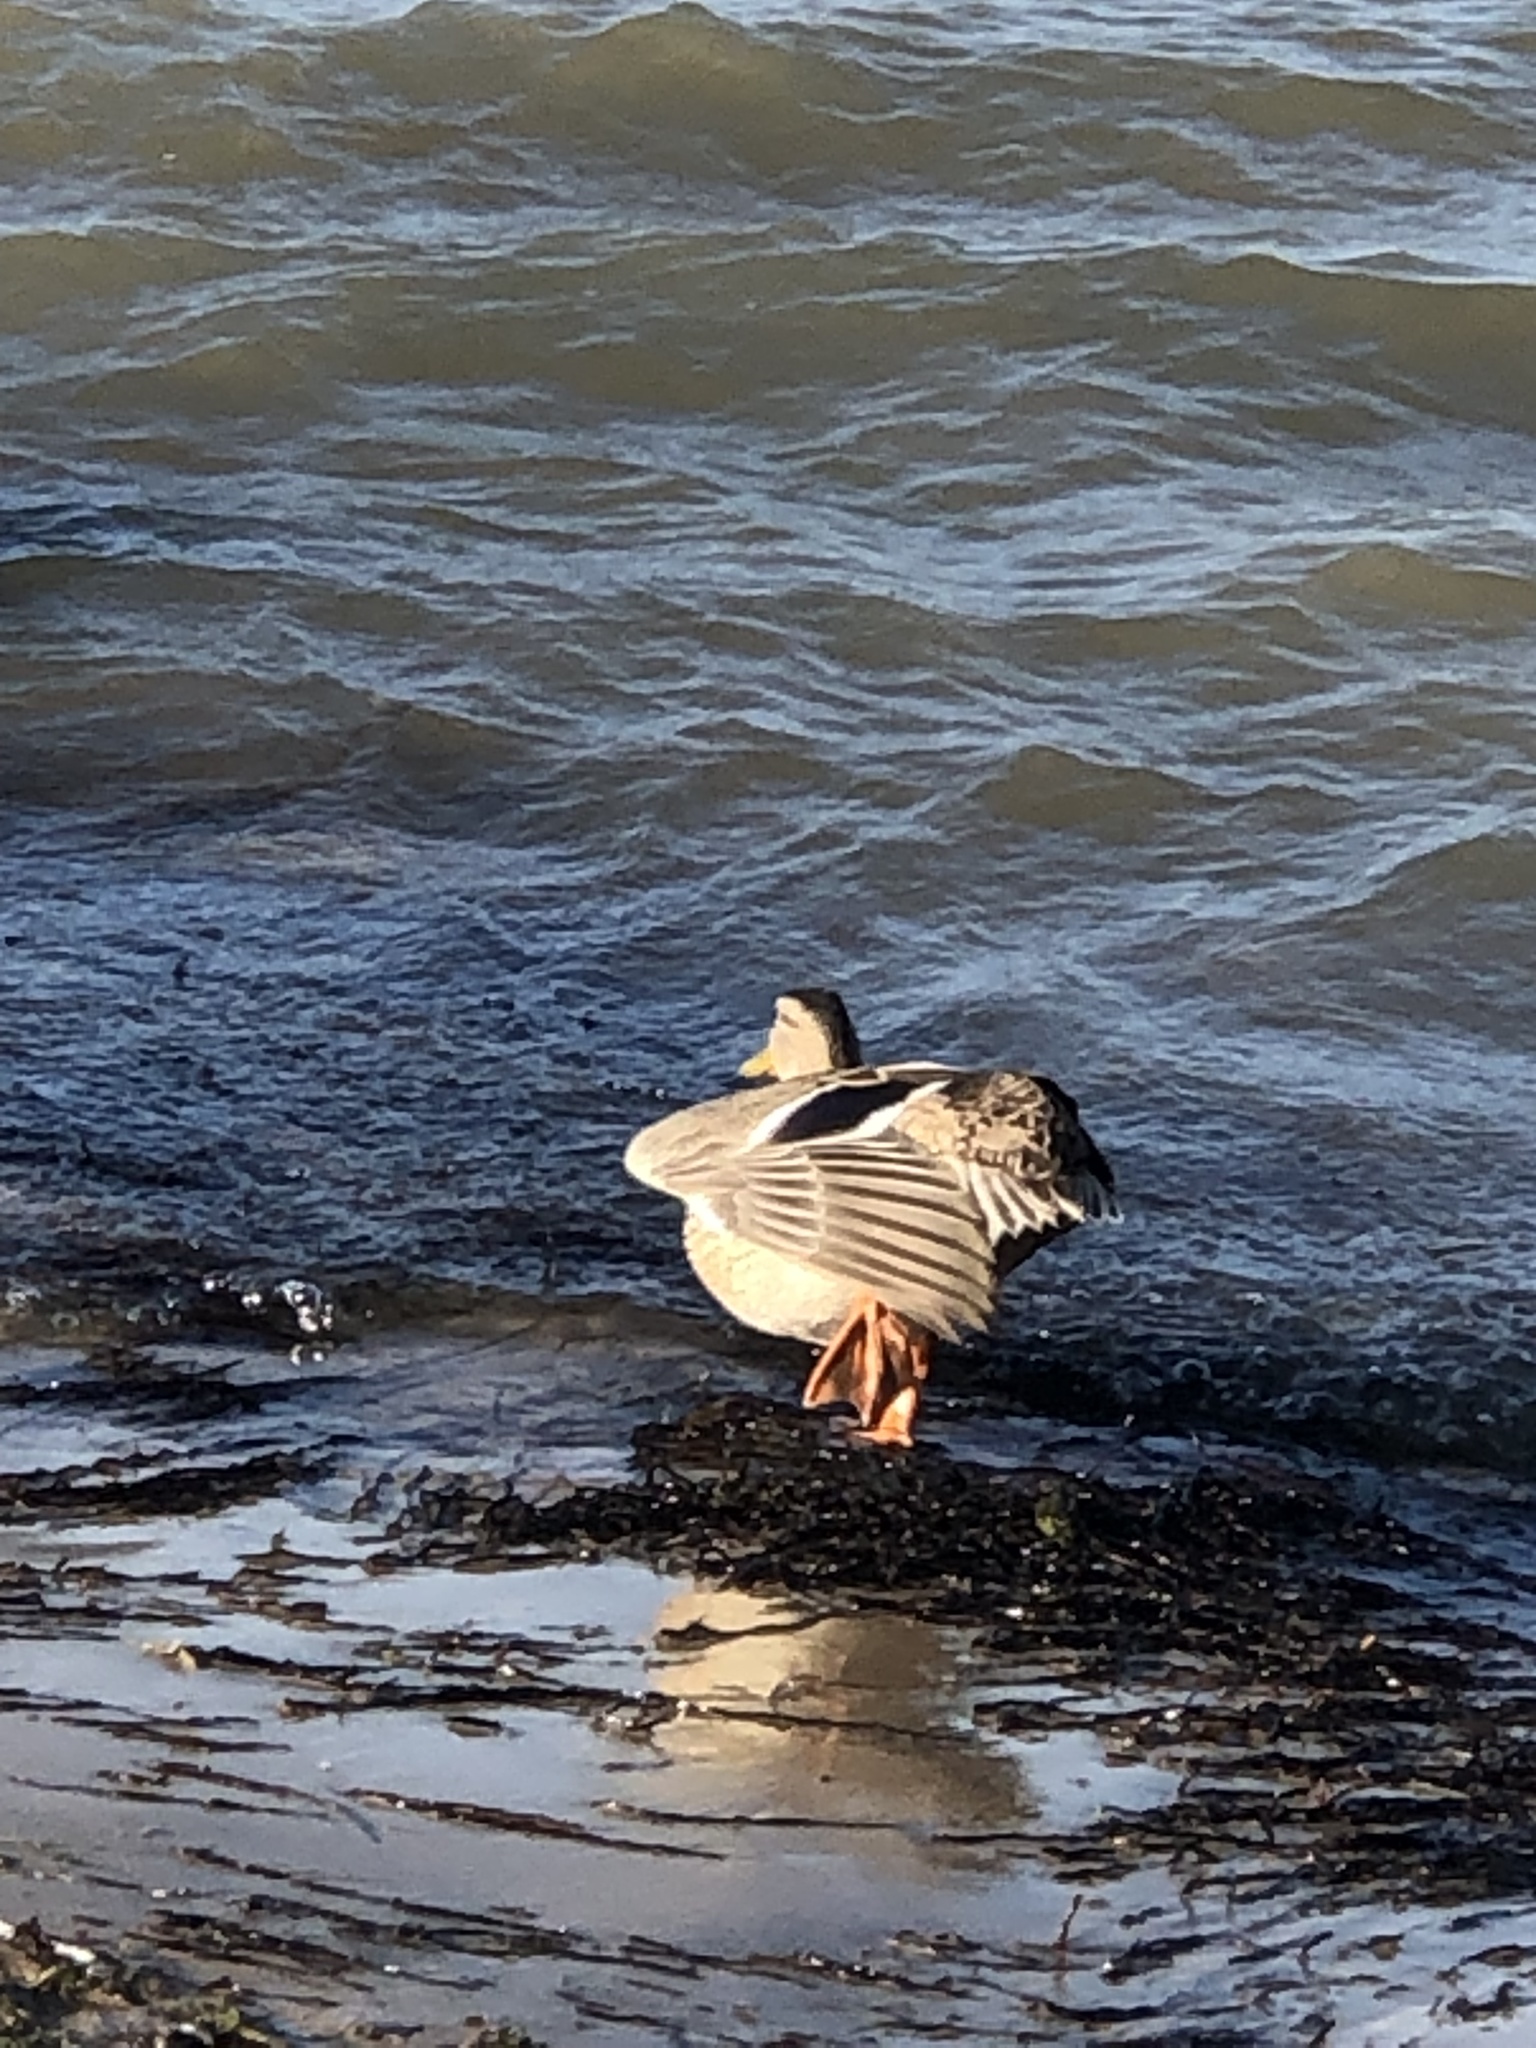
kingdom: Animalia
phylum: Chordata
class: Aves
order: Anseriformes
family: Anatidae
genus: Anas
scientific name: Anas platyrhynchos
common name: Mallard
